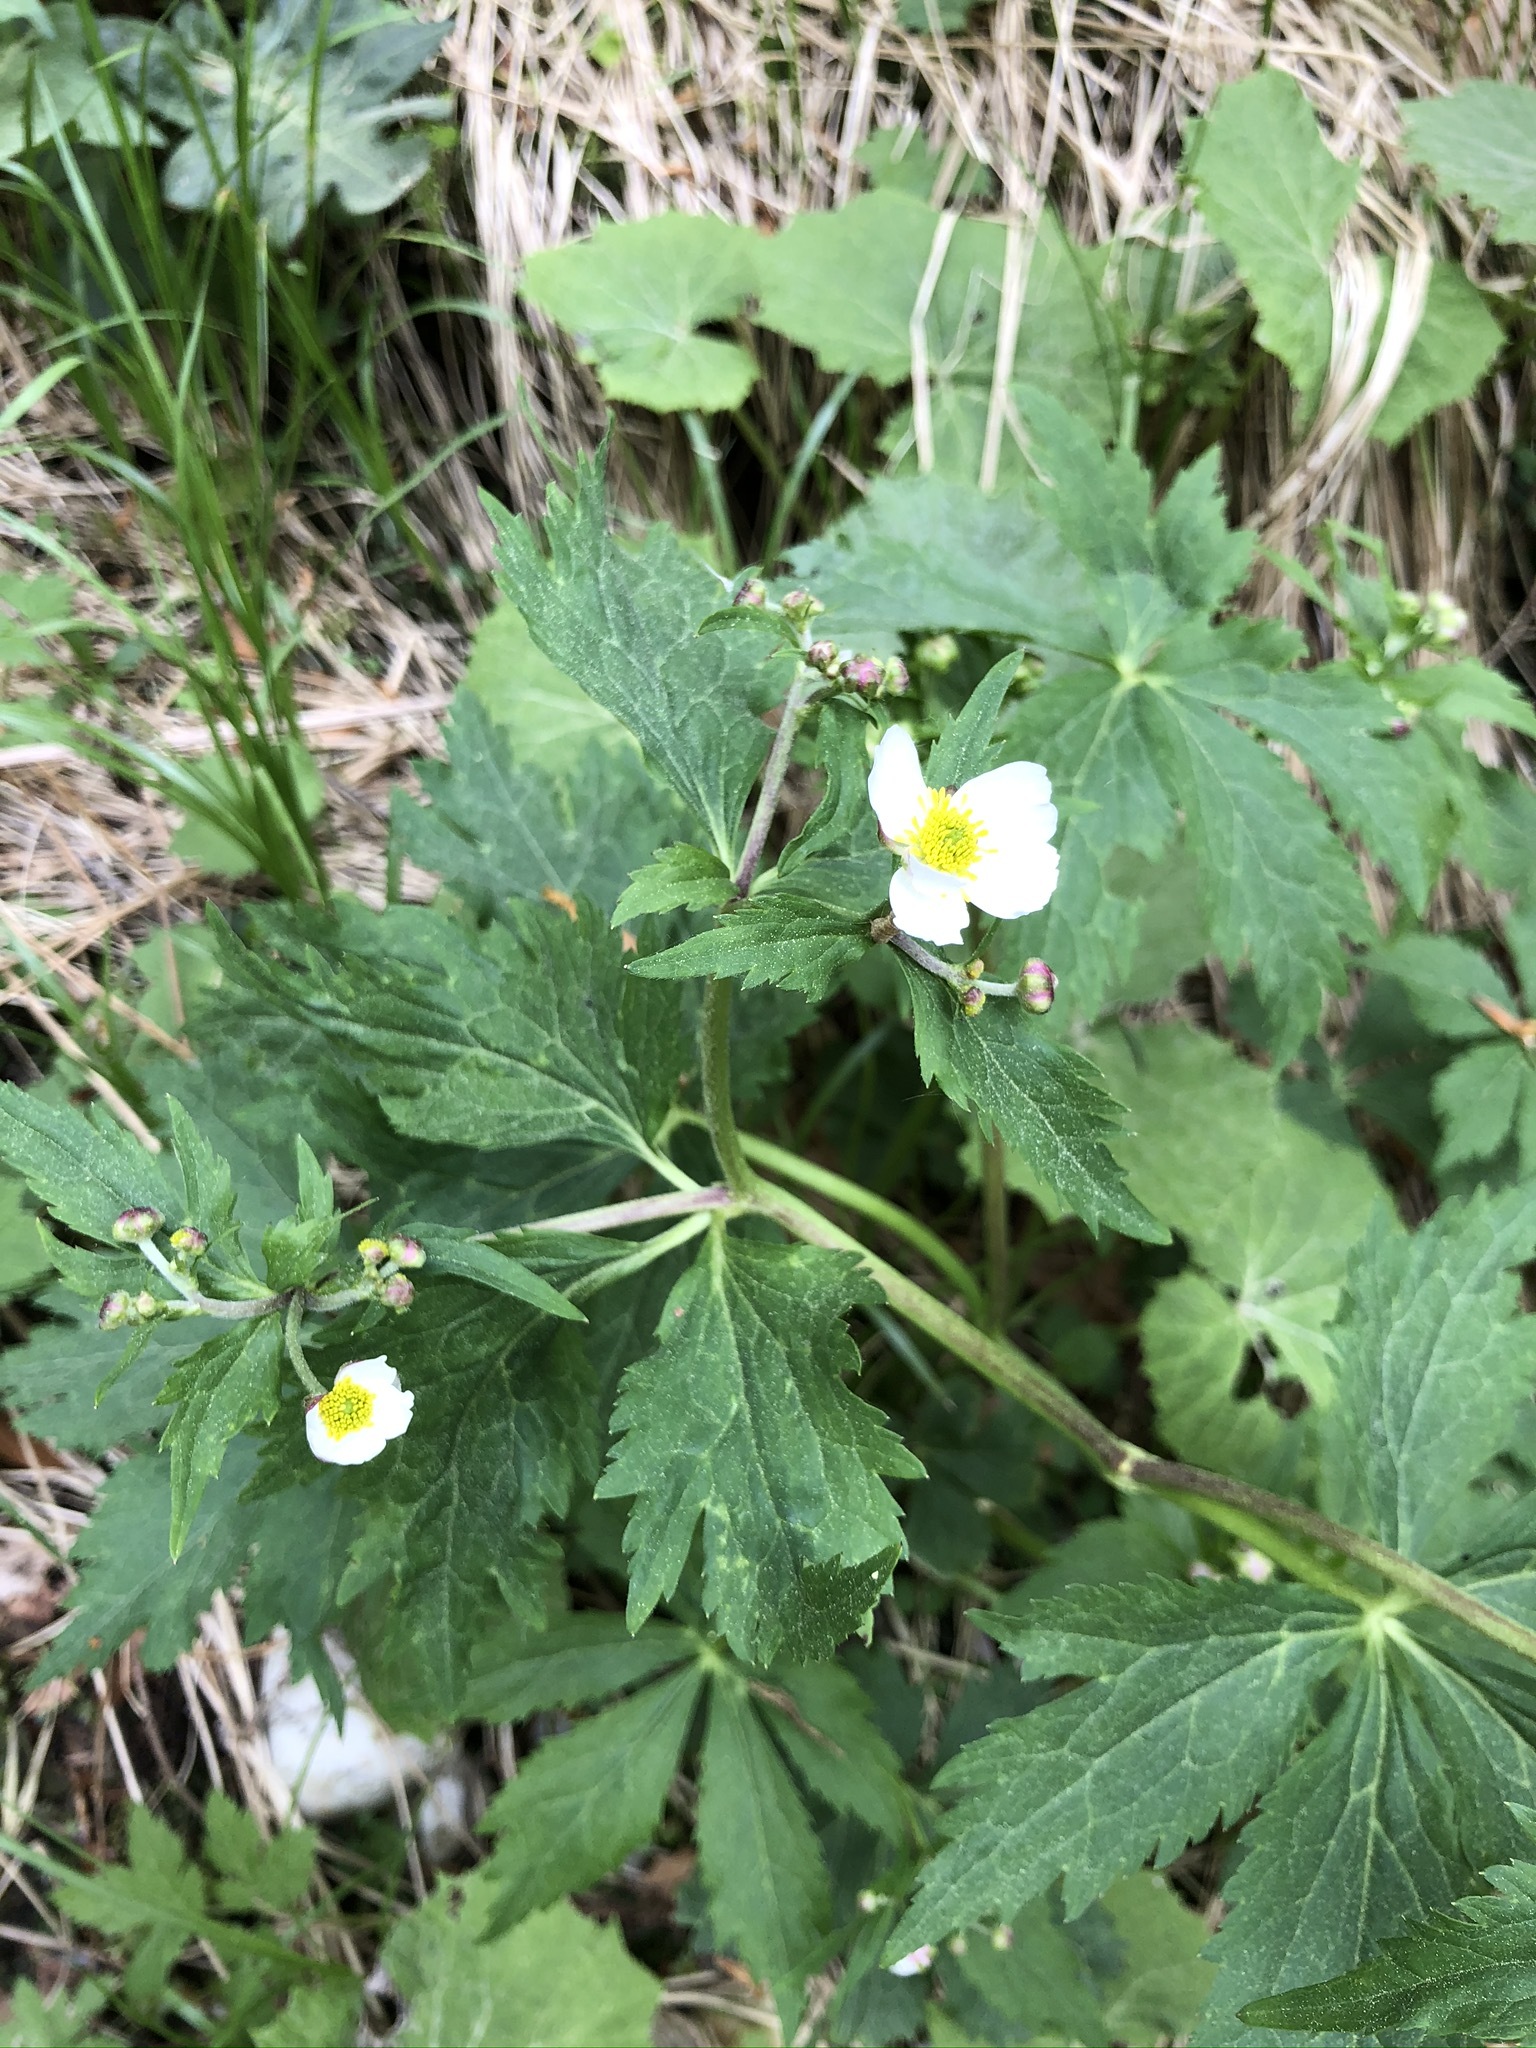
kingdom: Plantae
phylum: Tracheophyta
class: Magnoliopsida
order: Ranunculales
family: Ranunculaceae
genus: Ranunculus
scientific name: Ranunculus aconitifolius
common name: Aconite-leaved buttercup
